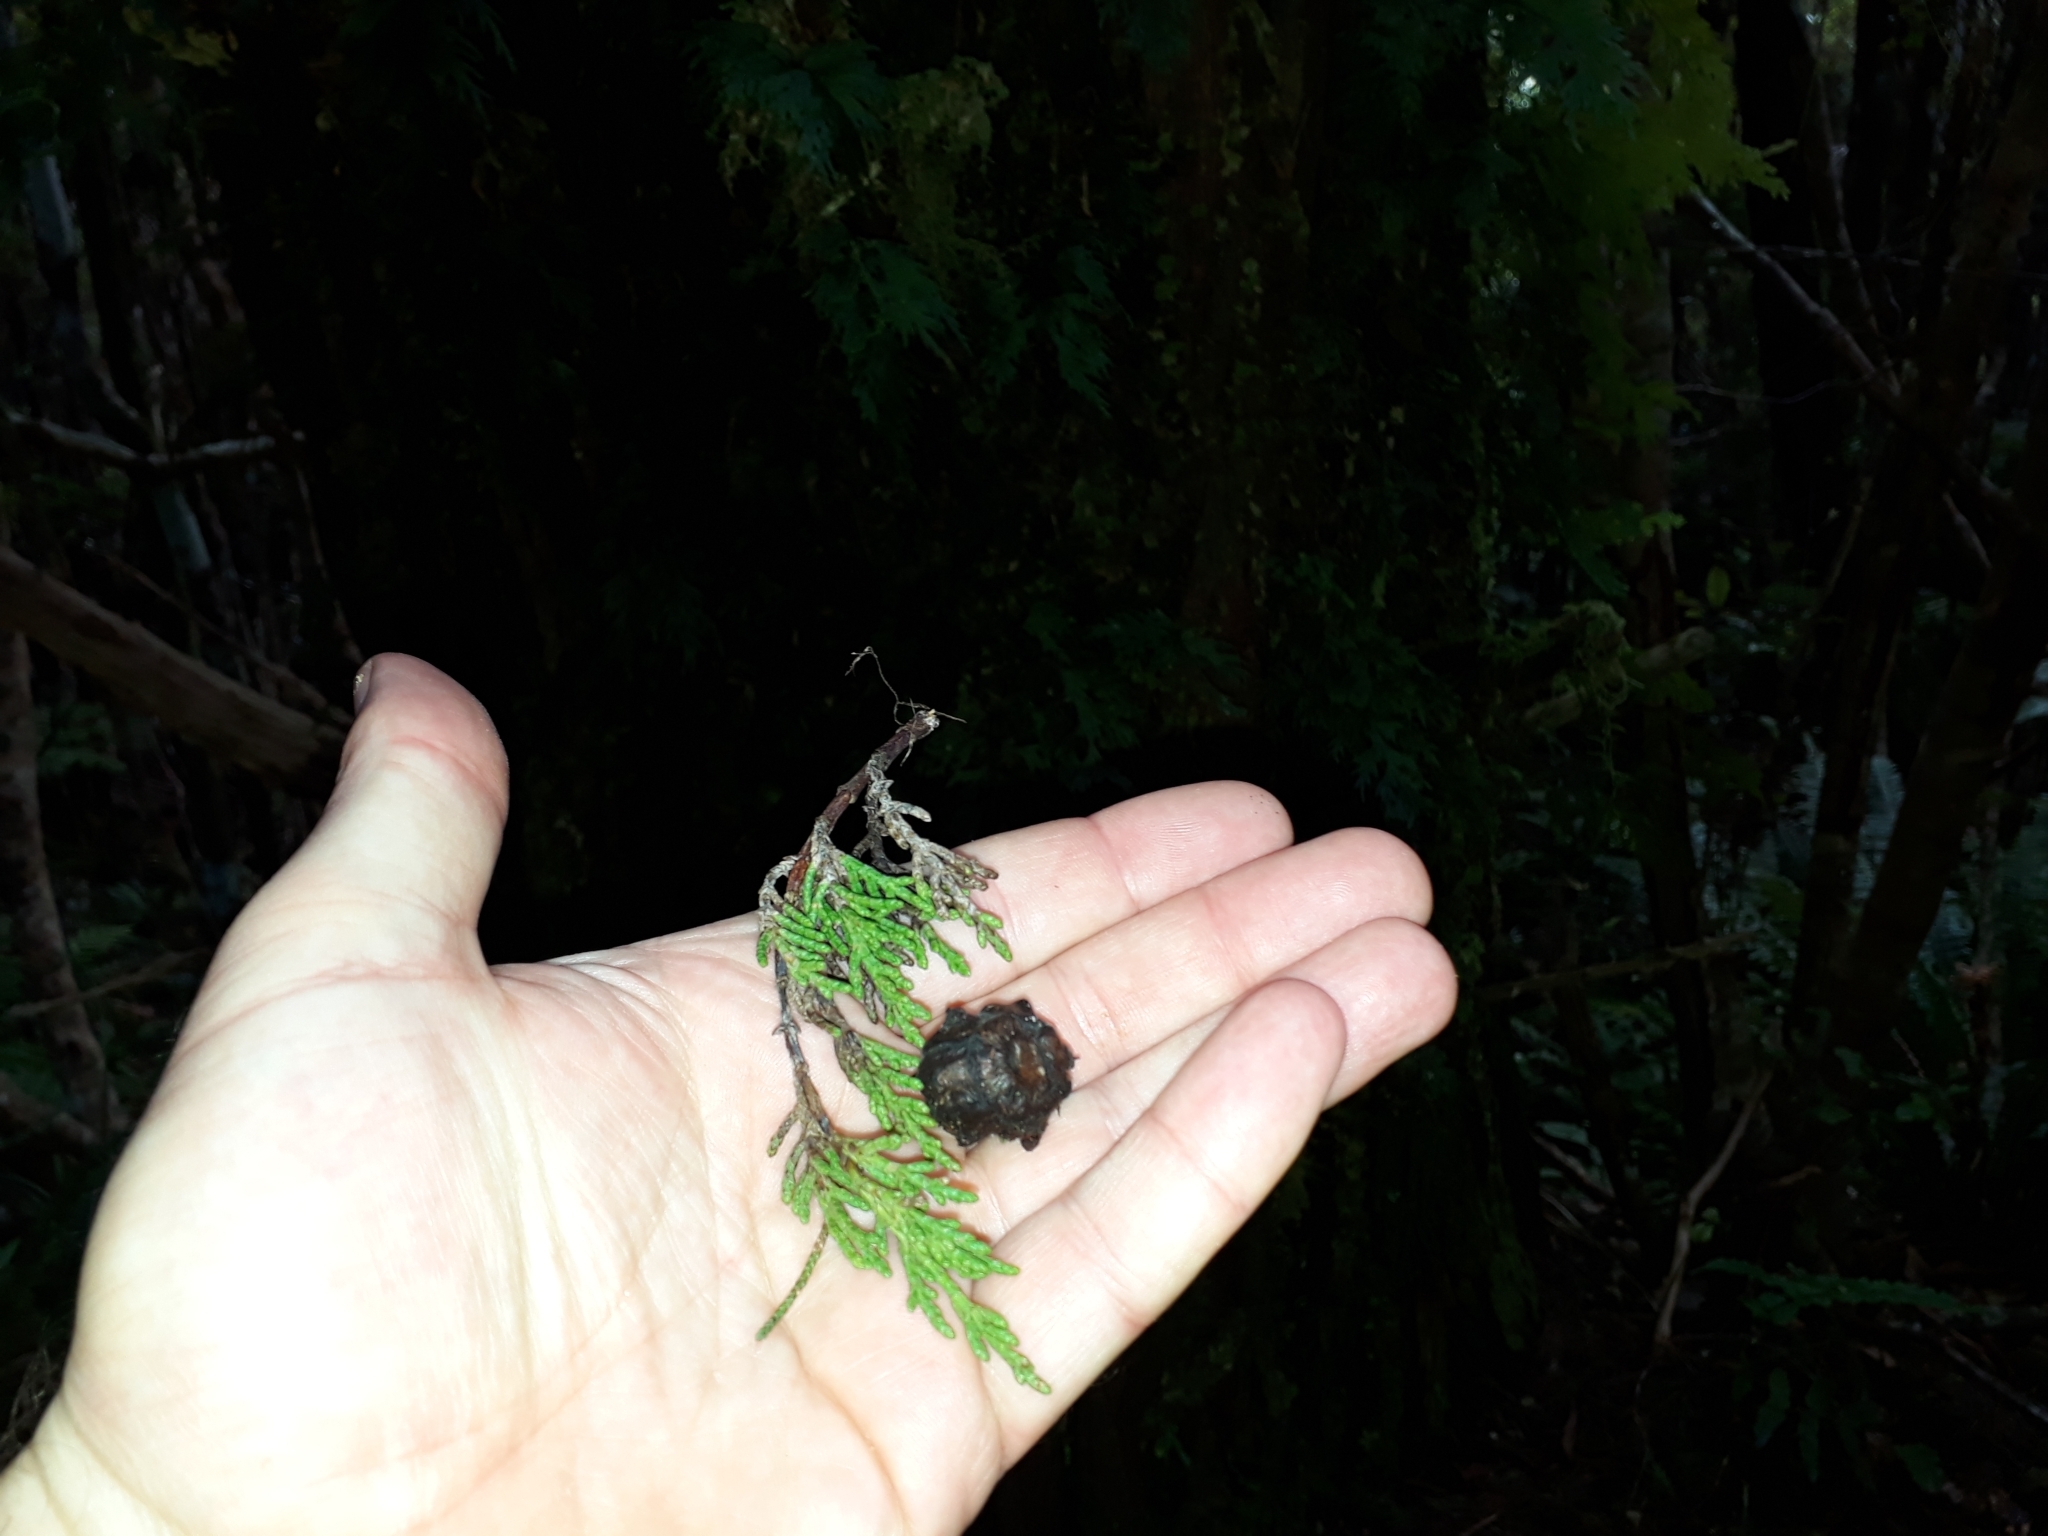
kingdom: Plantae
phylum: Tracheophyta
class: Polypodiopsida
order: Hymenophyllales
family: Hymenophyllaceae
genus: Hymenophyllum
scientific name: Hymenophyllum dilatatum
